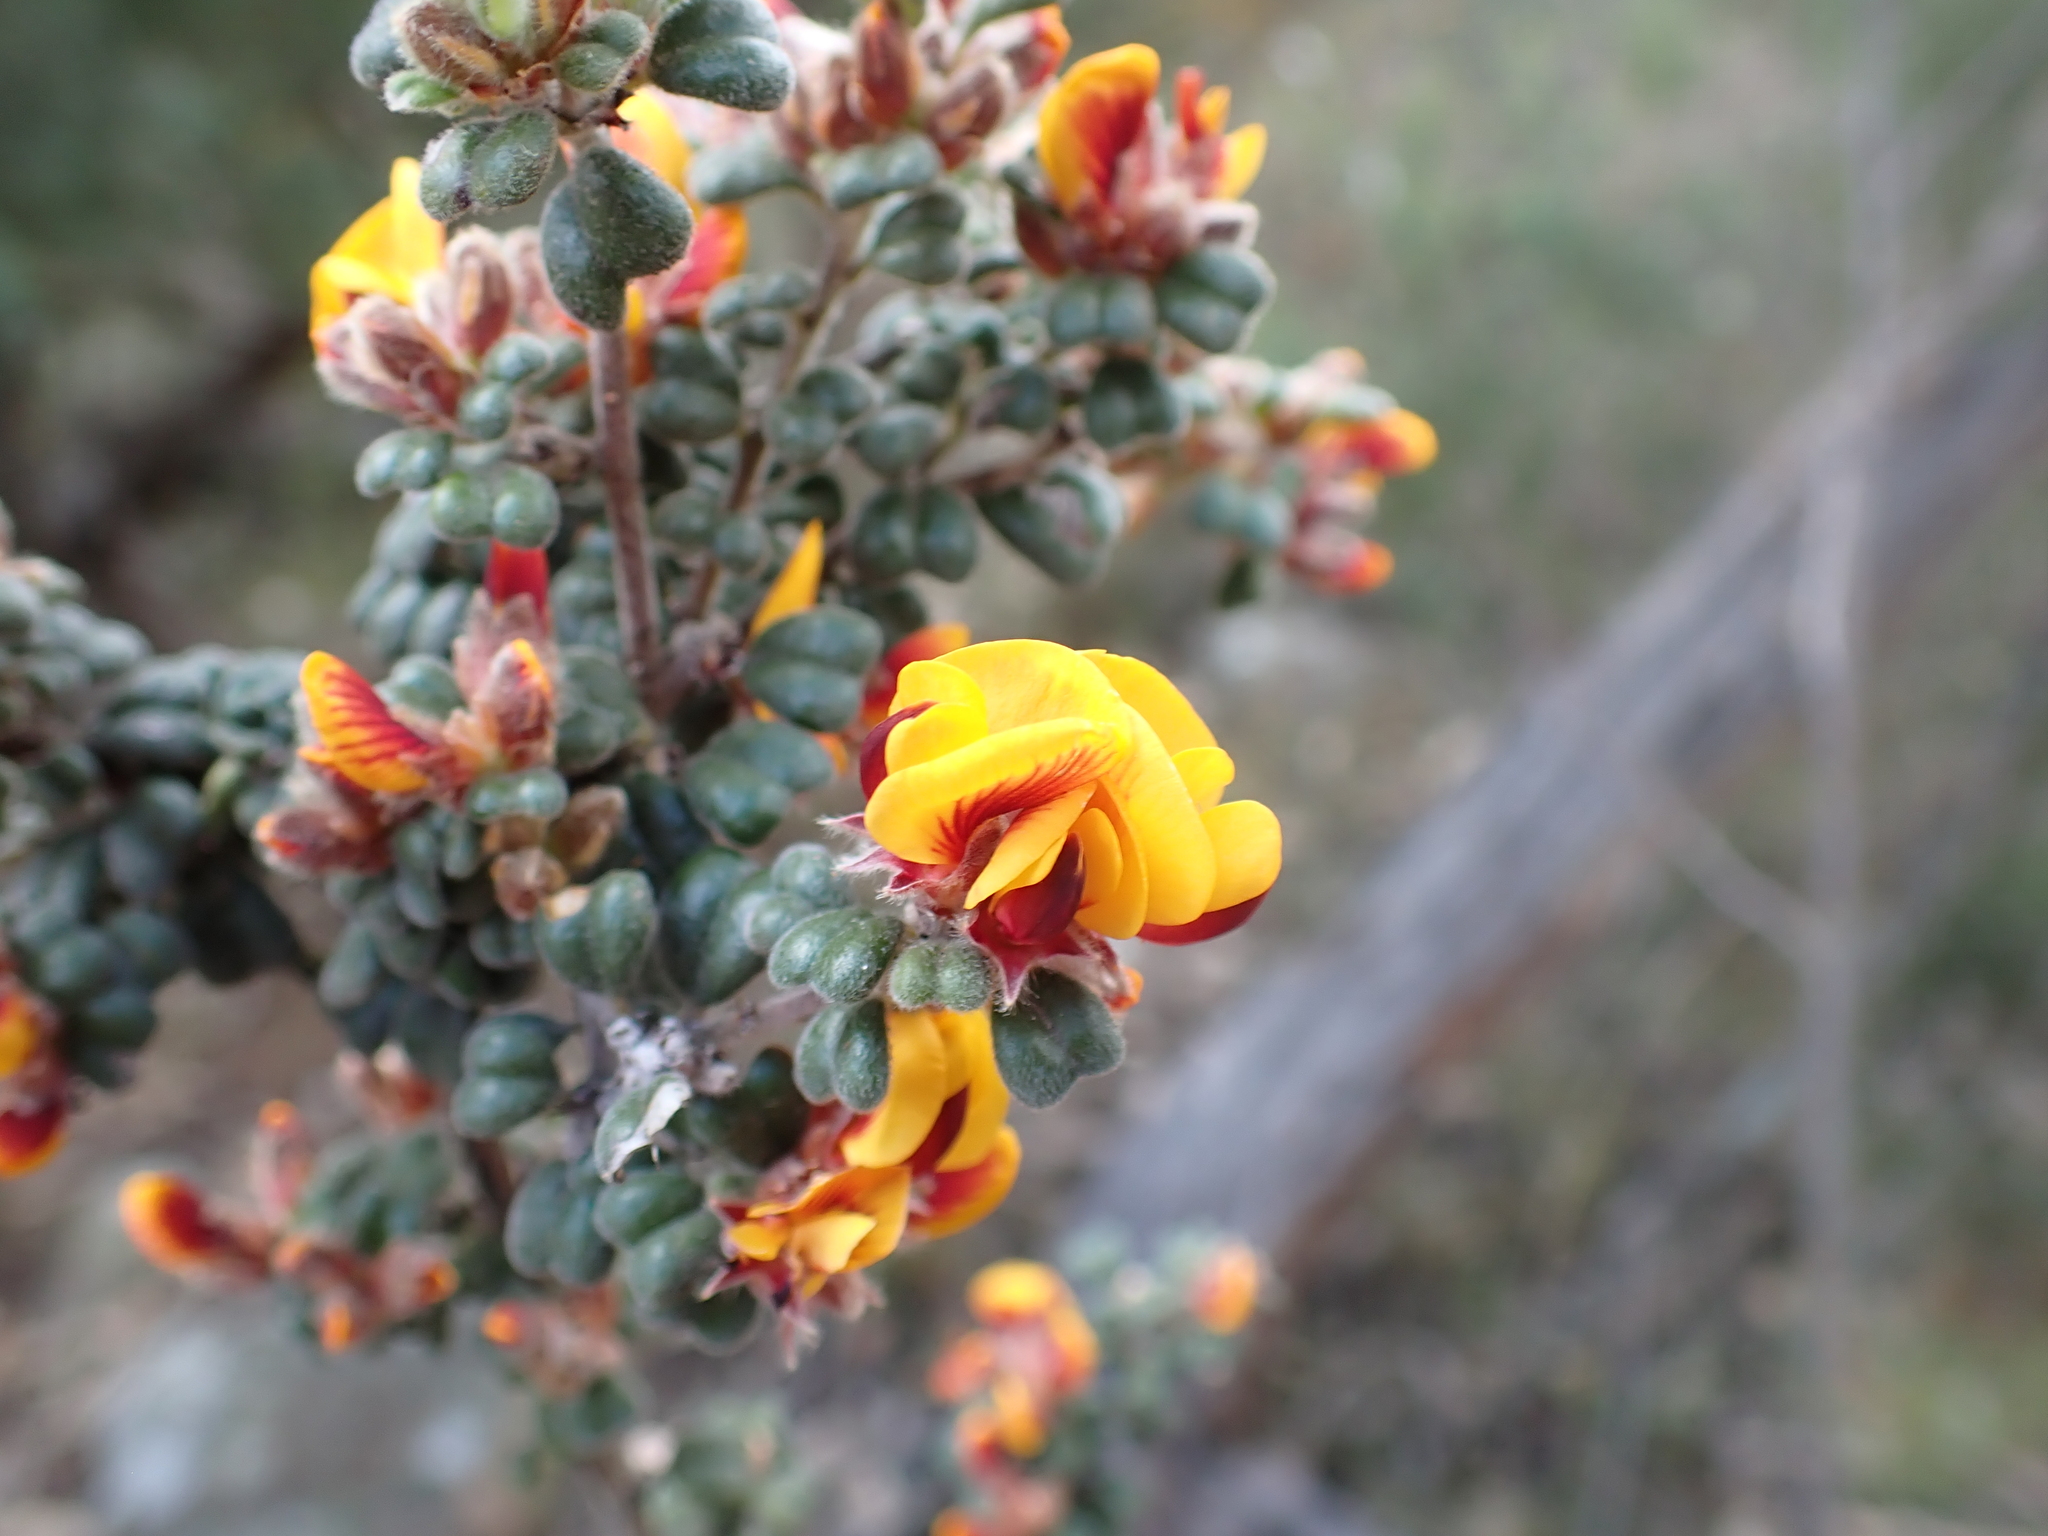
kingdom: Plantae
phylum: Tracheophyta
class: Magnoliopsida
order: Fabales
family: Fabaceae
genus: Pultenaea
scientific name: Pultenaea scabra
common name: Rough bush-pea
